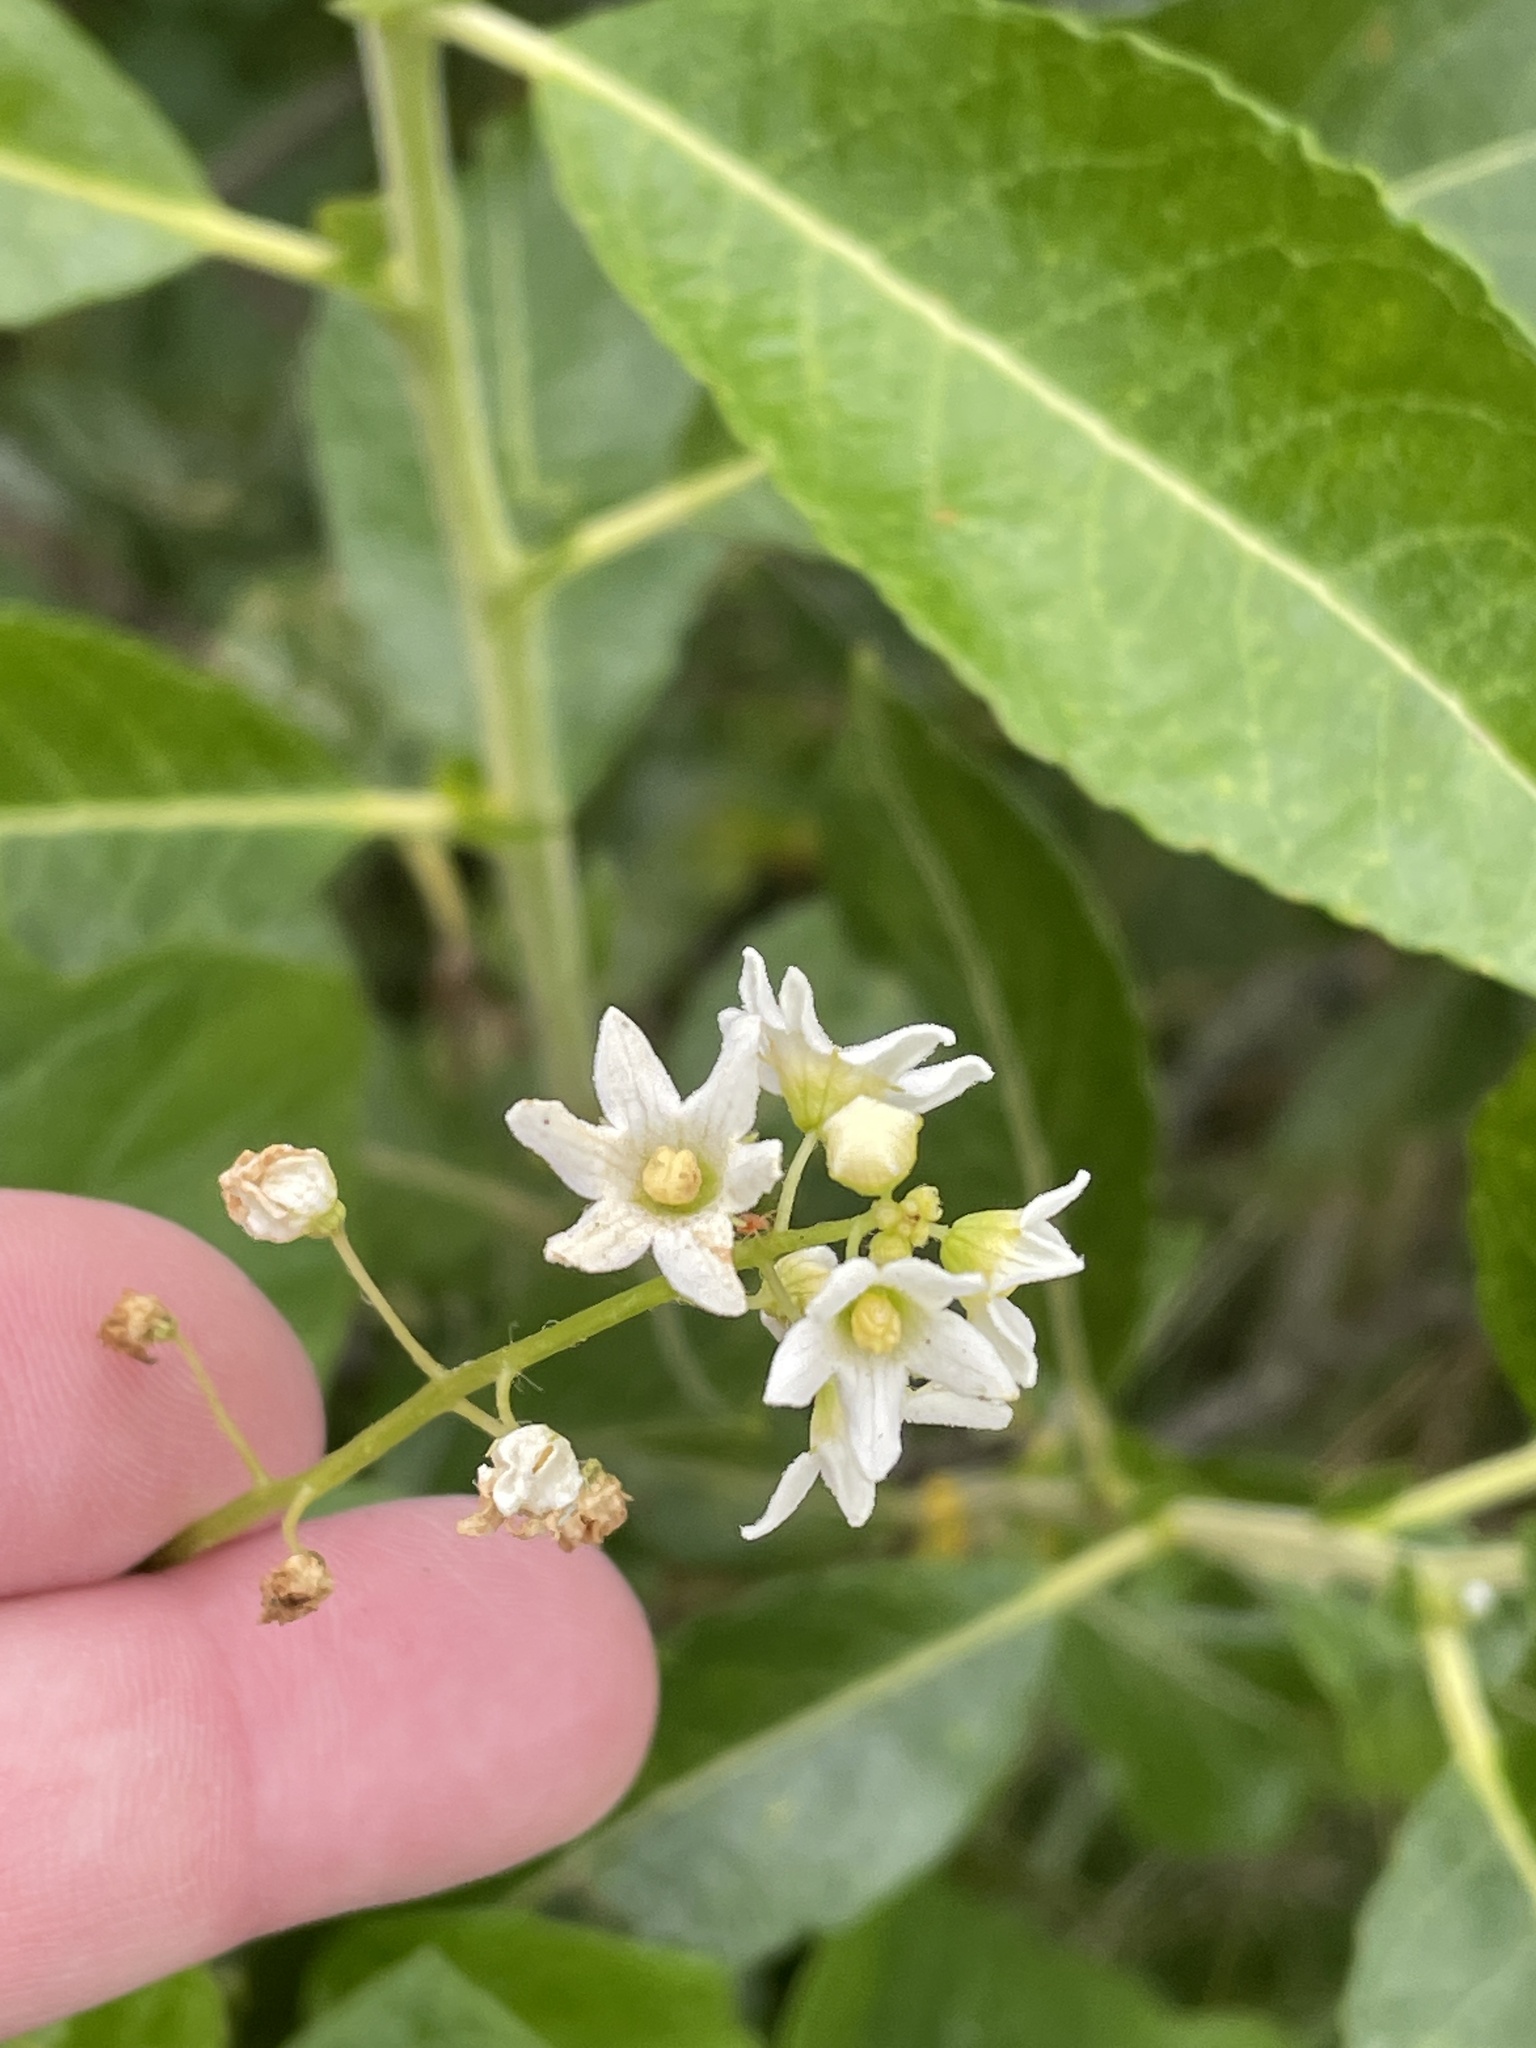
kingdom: Plantae
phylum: Tracheophyta
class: Magnoliopsida
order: Cucurbitales
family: Cucurbitaceae
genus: Marah
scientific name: Marah oregana
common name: Coastal manroot
